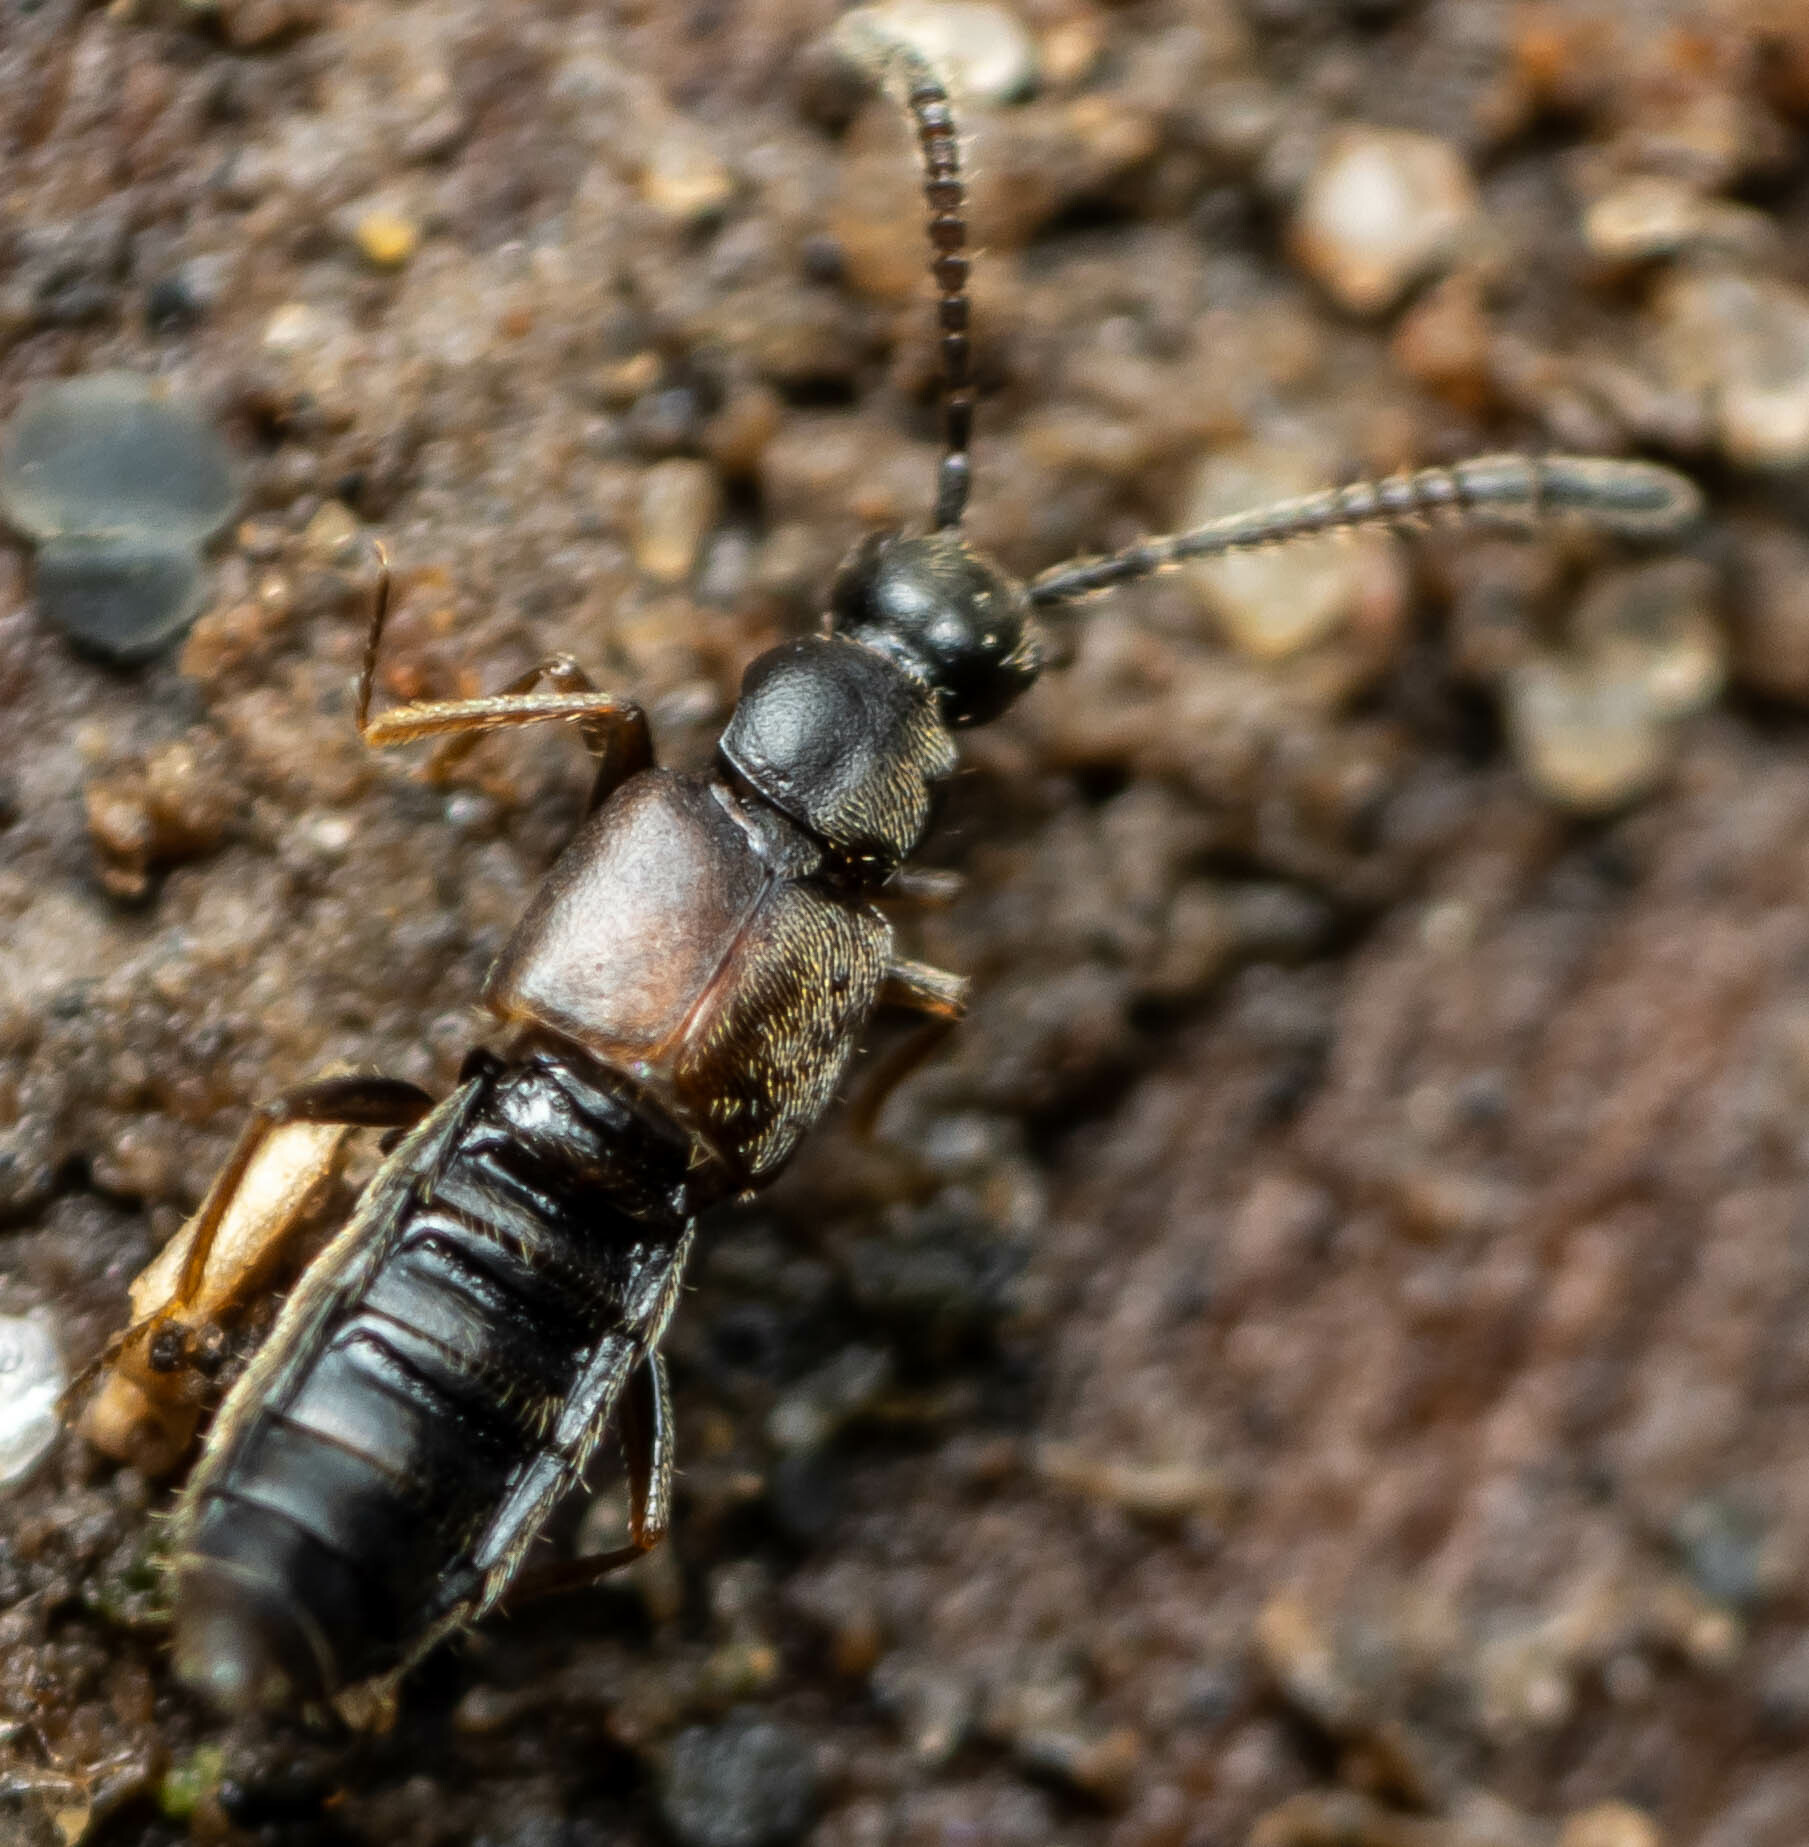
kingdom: Animalia
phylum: Arthropoda
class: Insecta
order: Coleoptera
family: Staphylinidae
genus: Callicerus
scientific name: Callicerus obscurus
